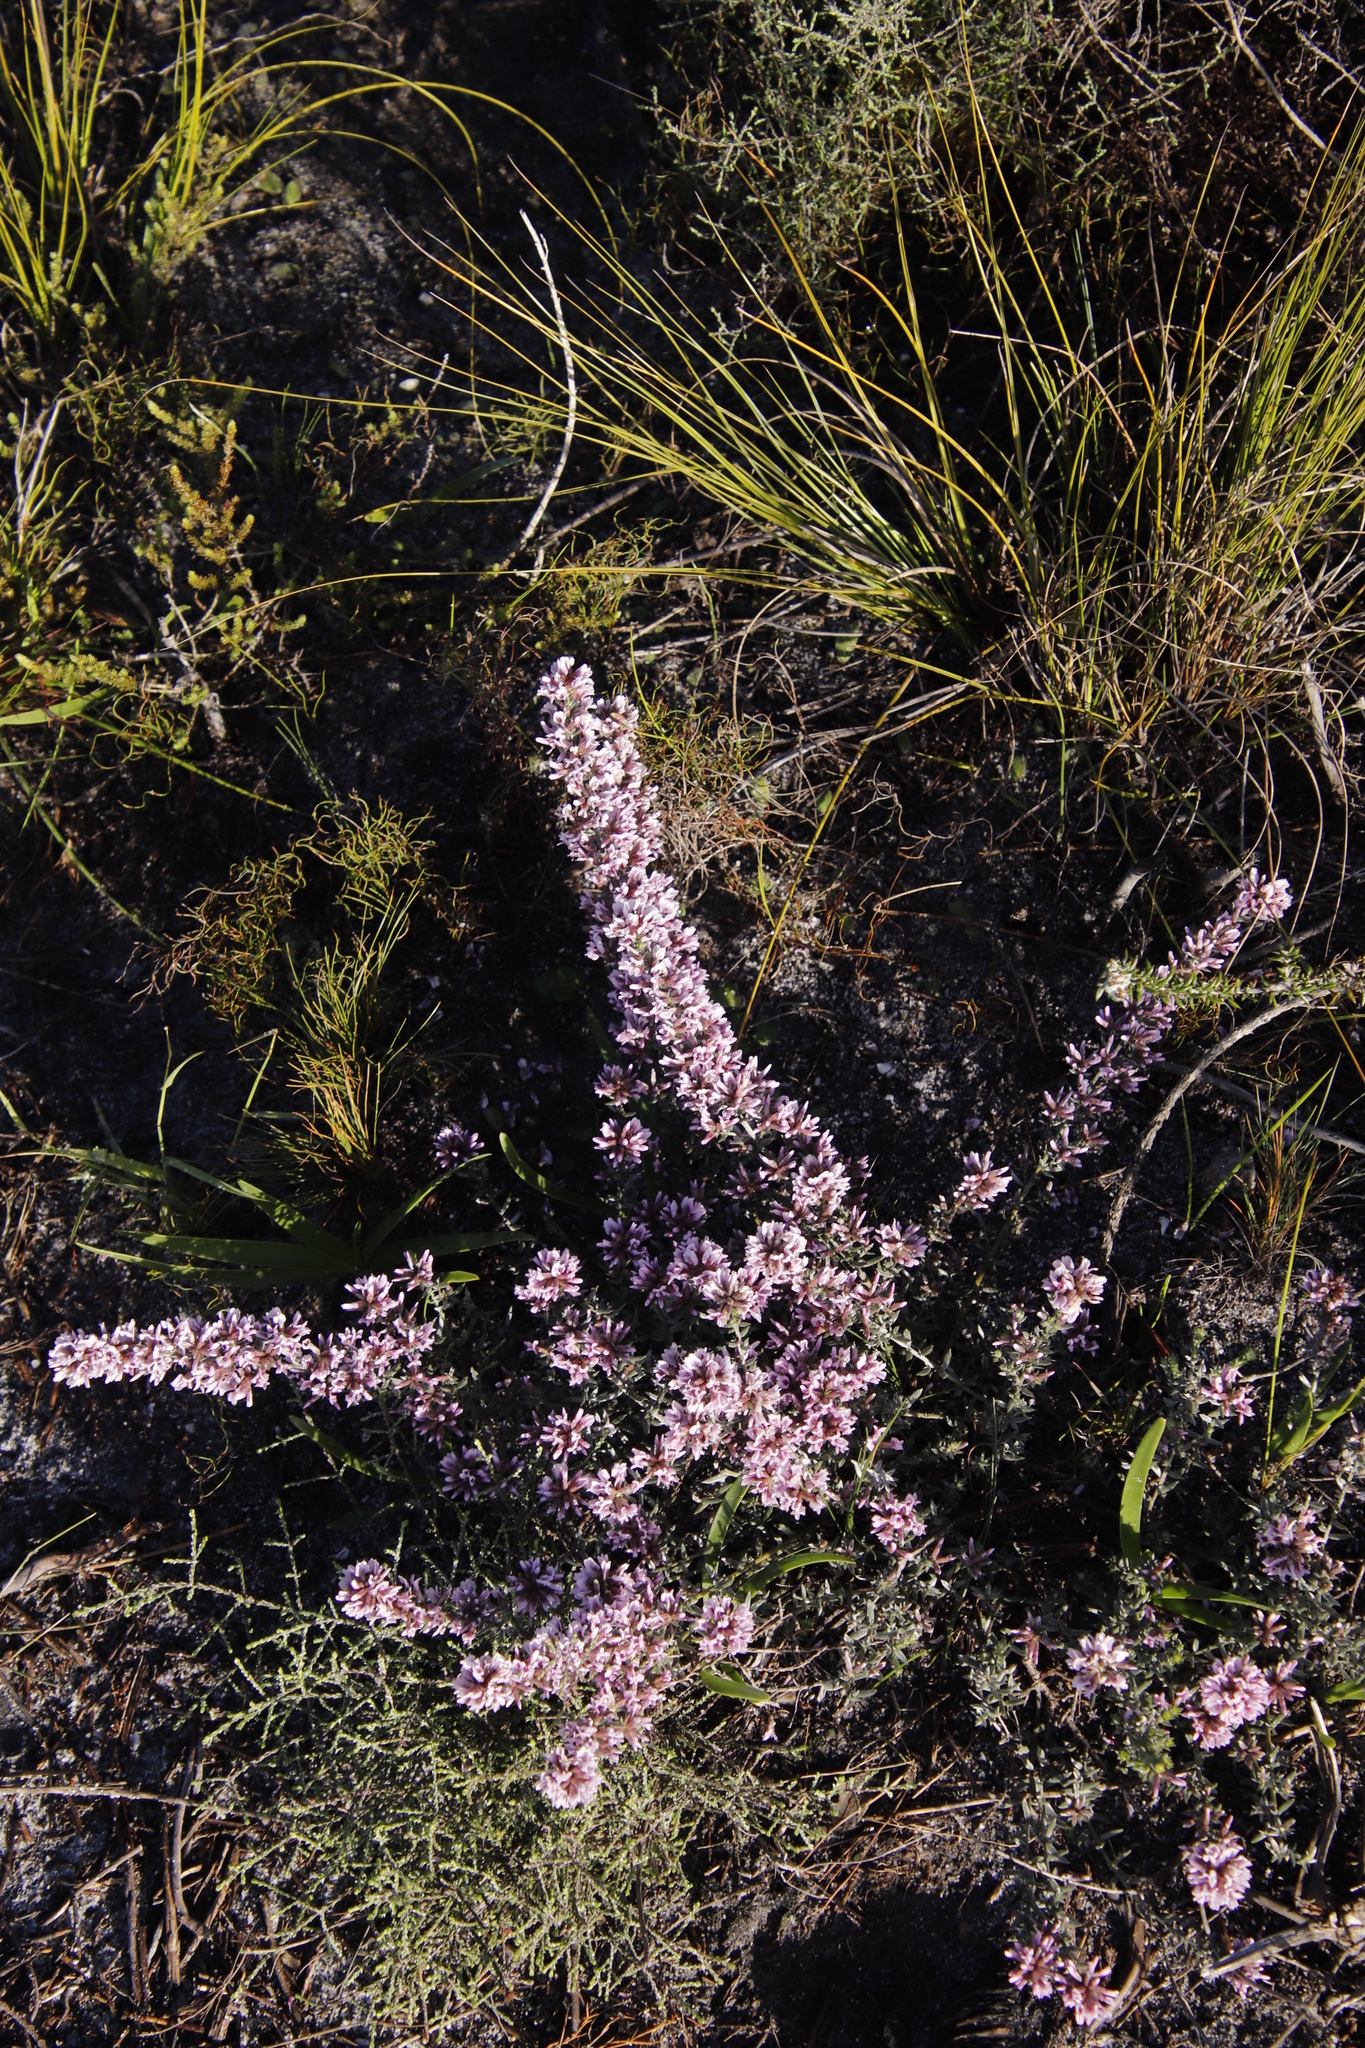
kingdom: Plantae
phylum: Tracheophyta
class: Magnoliopsida
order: Fabales
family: Fabaceae
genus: Amphithalea
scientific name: Amphithalea ericifolia
